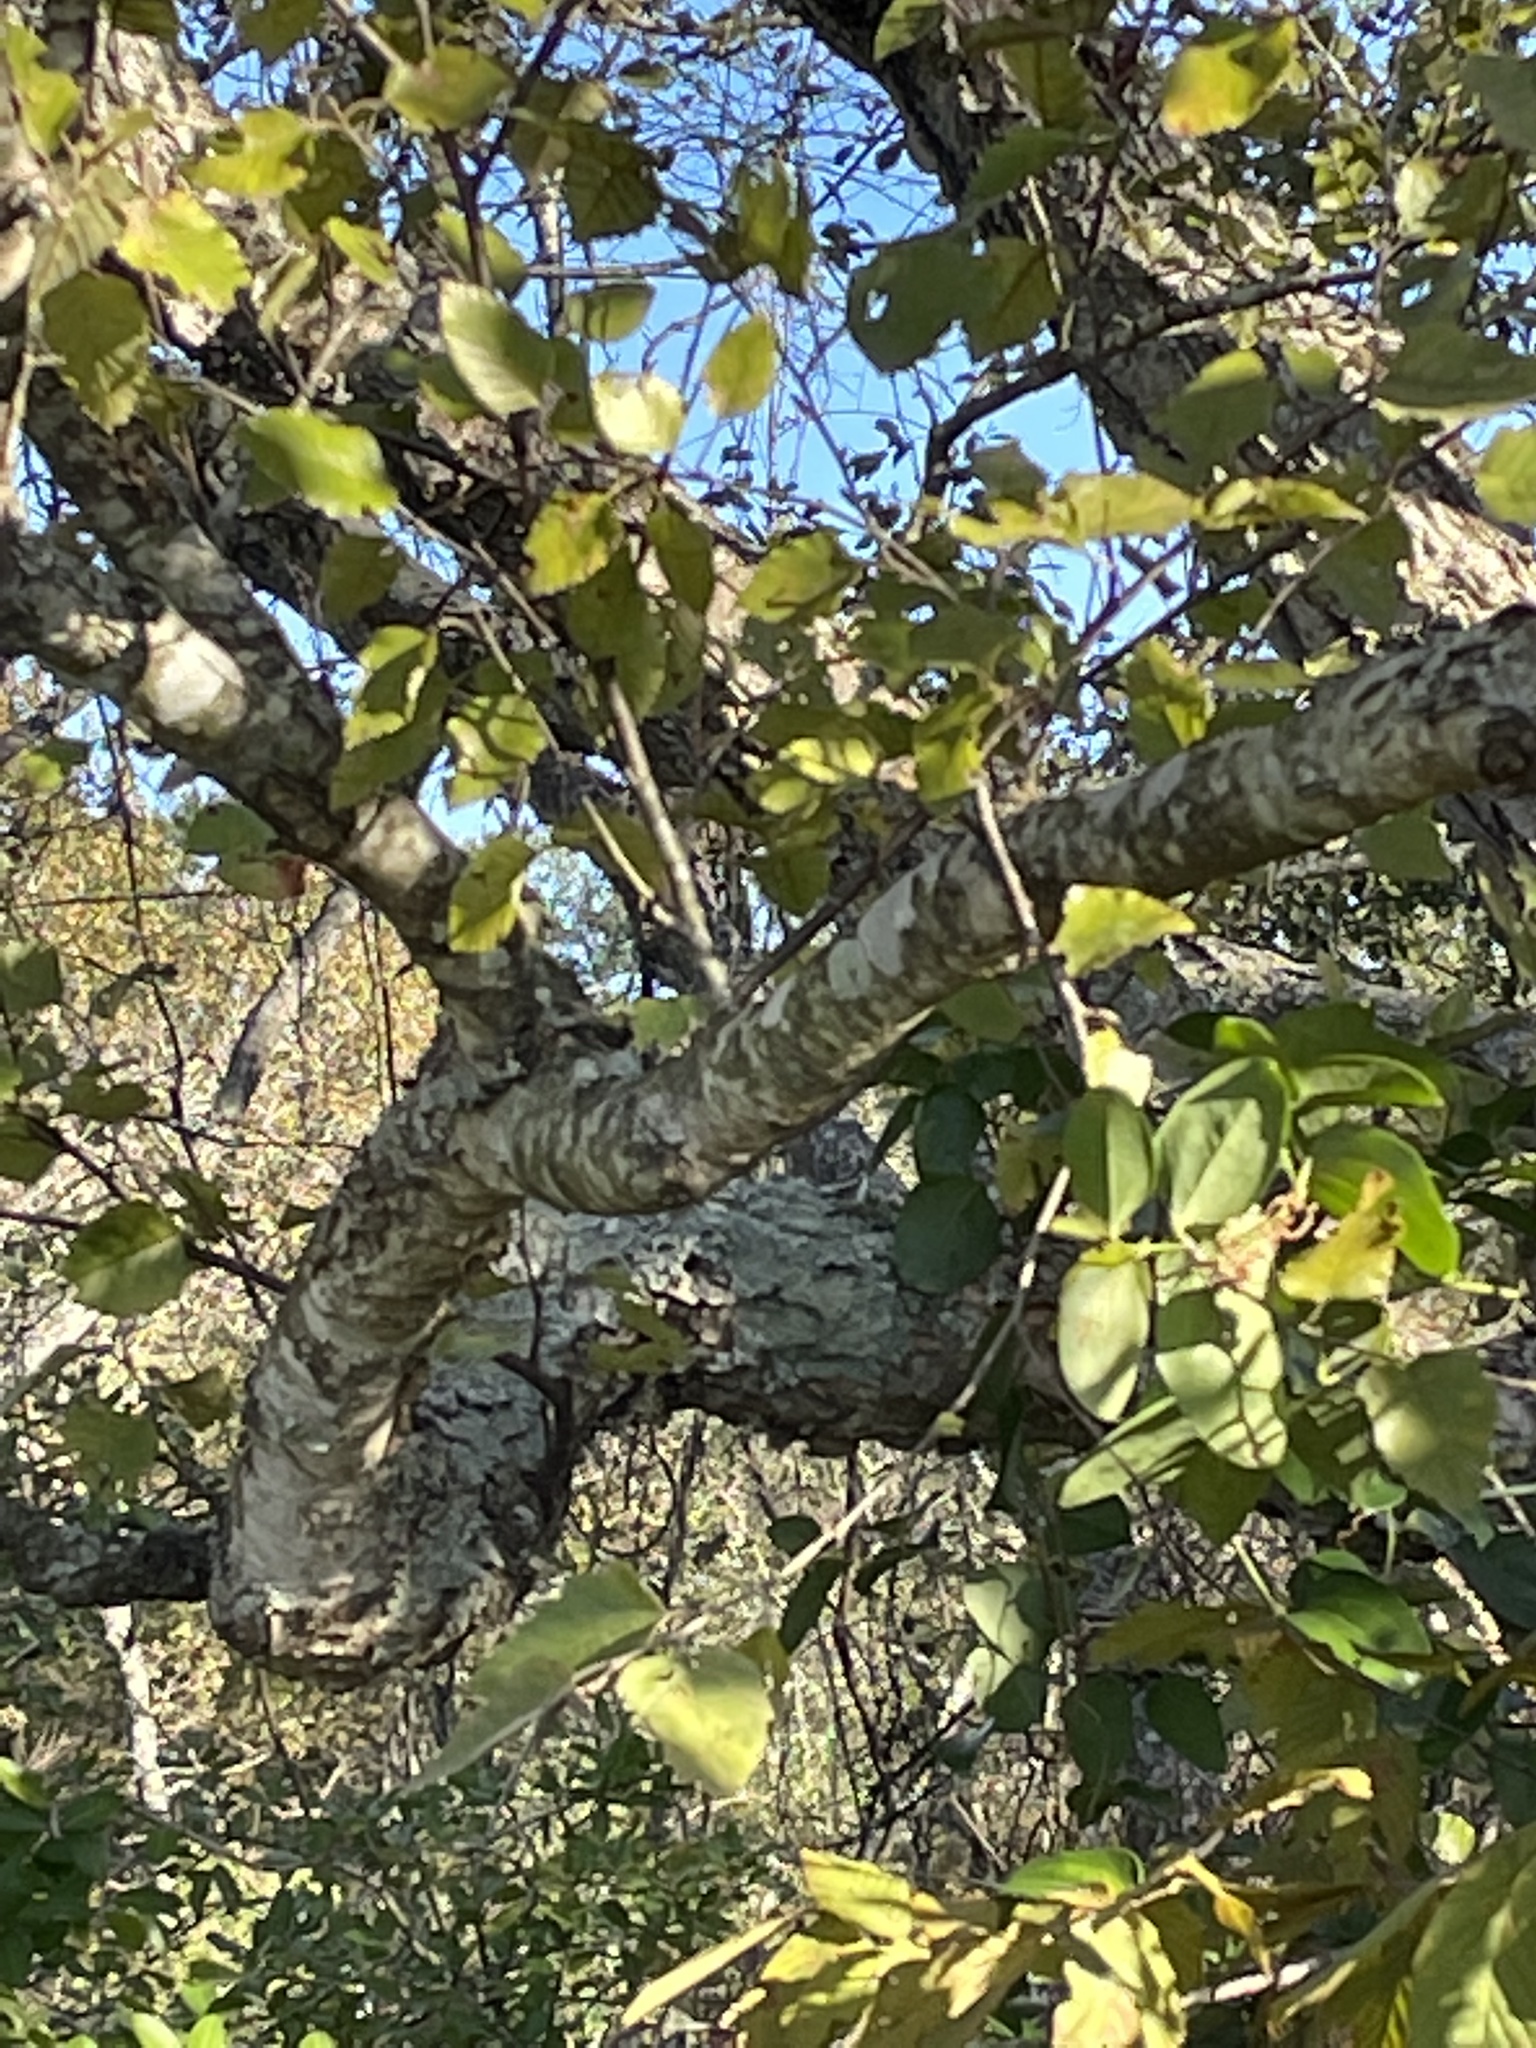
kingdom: Plantae
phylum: Tracheophyta
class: Magnoliopsida
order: Fagales
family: Betulaceae
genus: Betula
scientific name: Betula nigra
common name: Black birch
